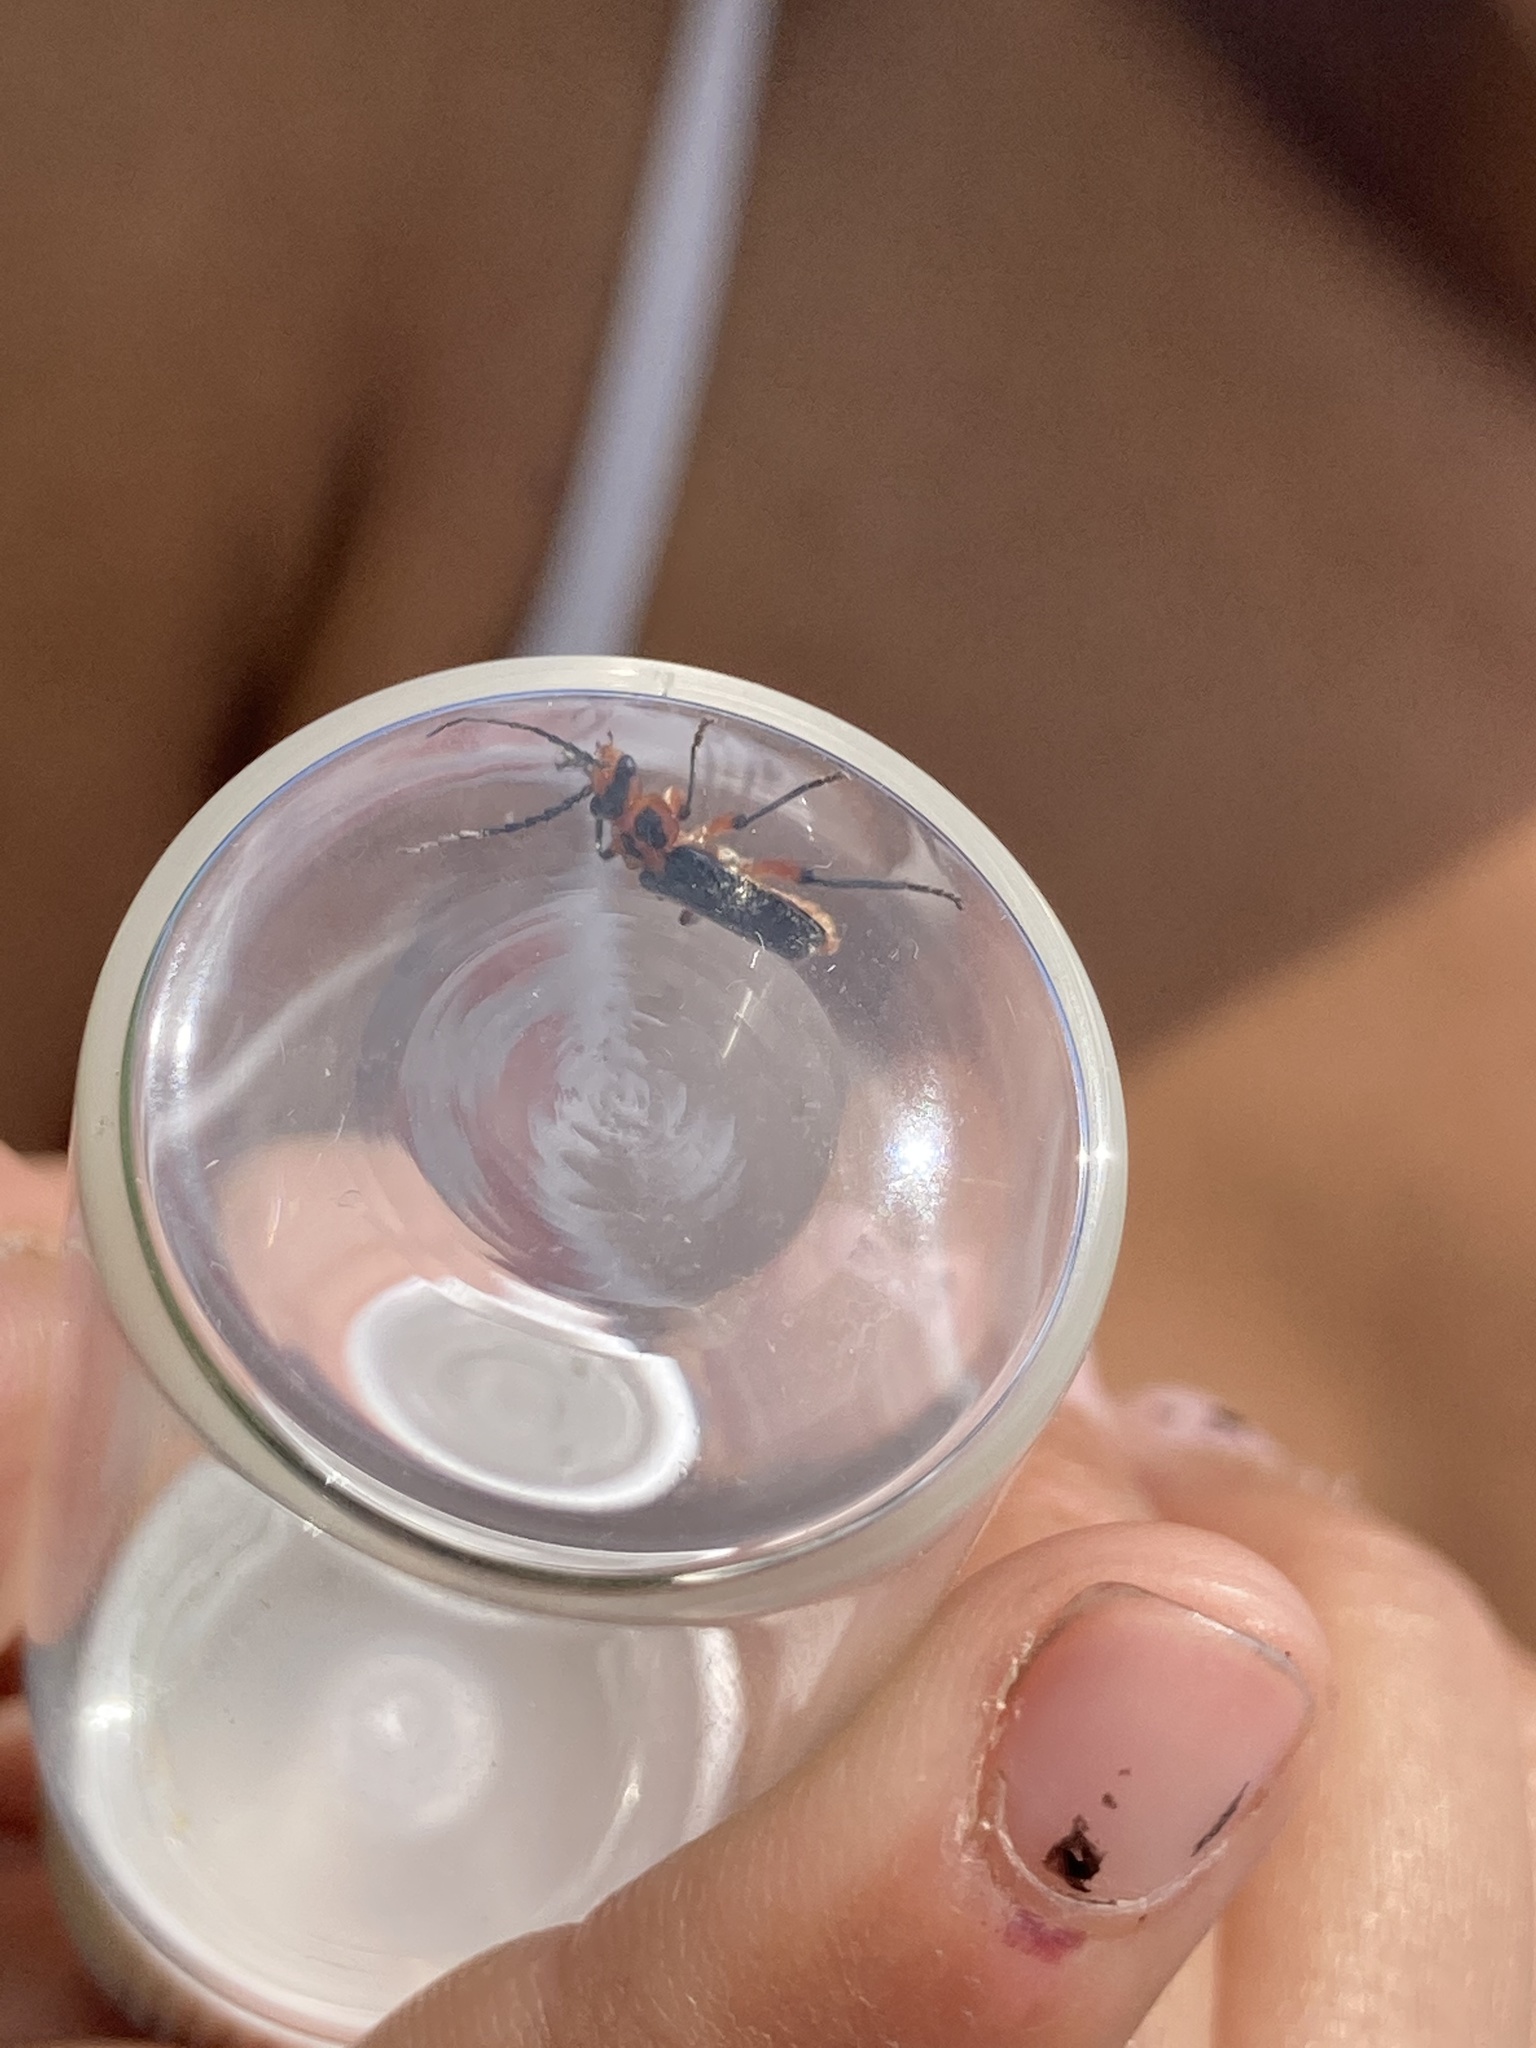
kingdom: Animalia
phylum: Arthropoda
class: Insecta
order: Coleoptera
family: Cantharidae
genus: Atalantycha
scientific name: Atalantycha bilineata
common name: Two-lined leatherwing
